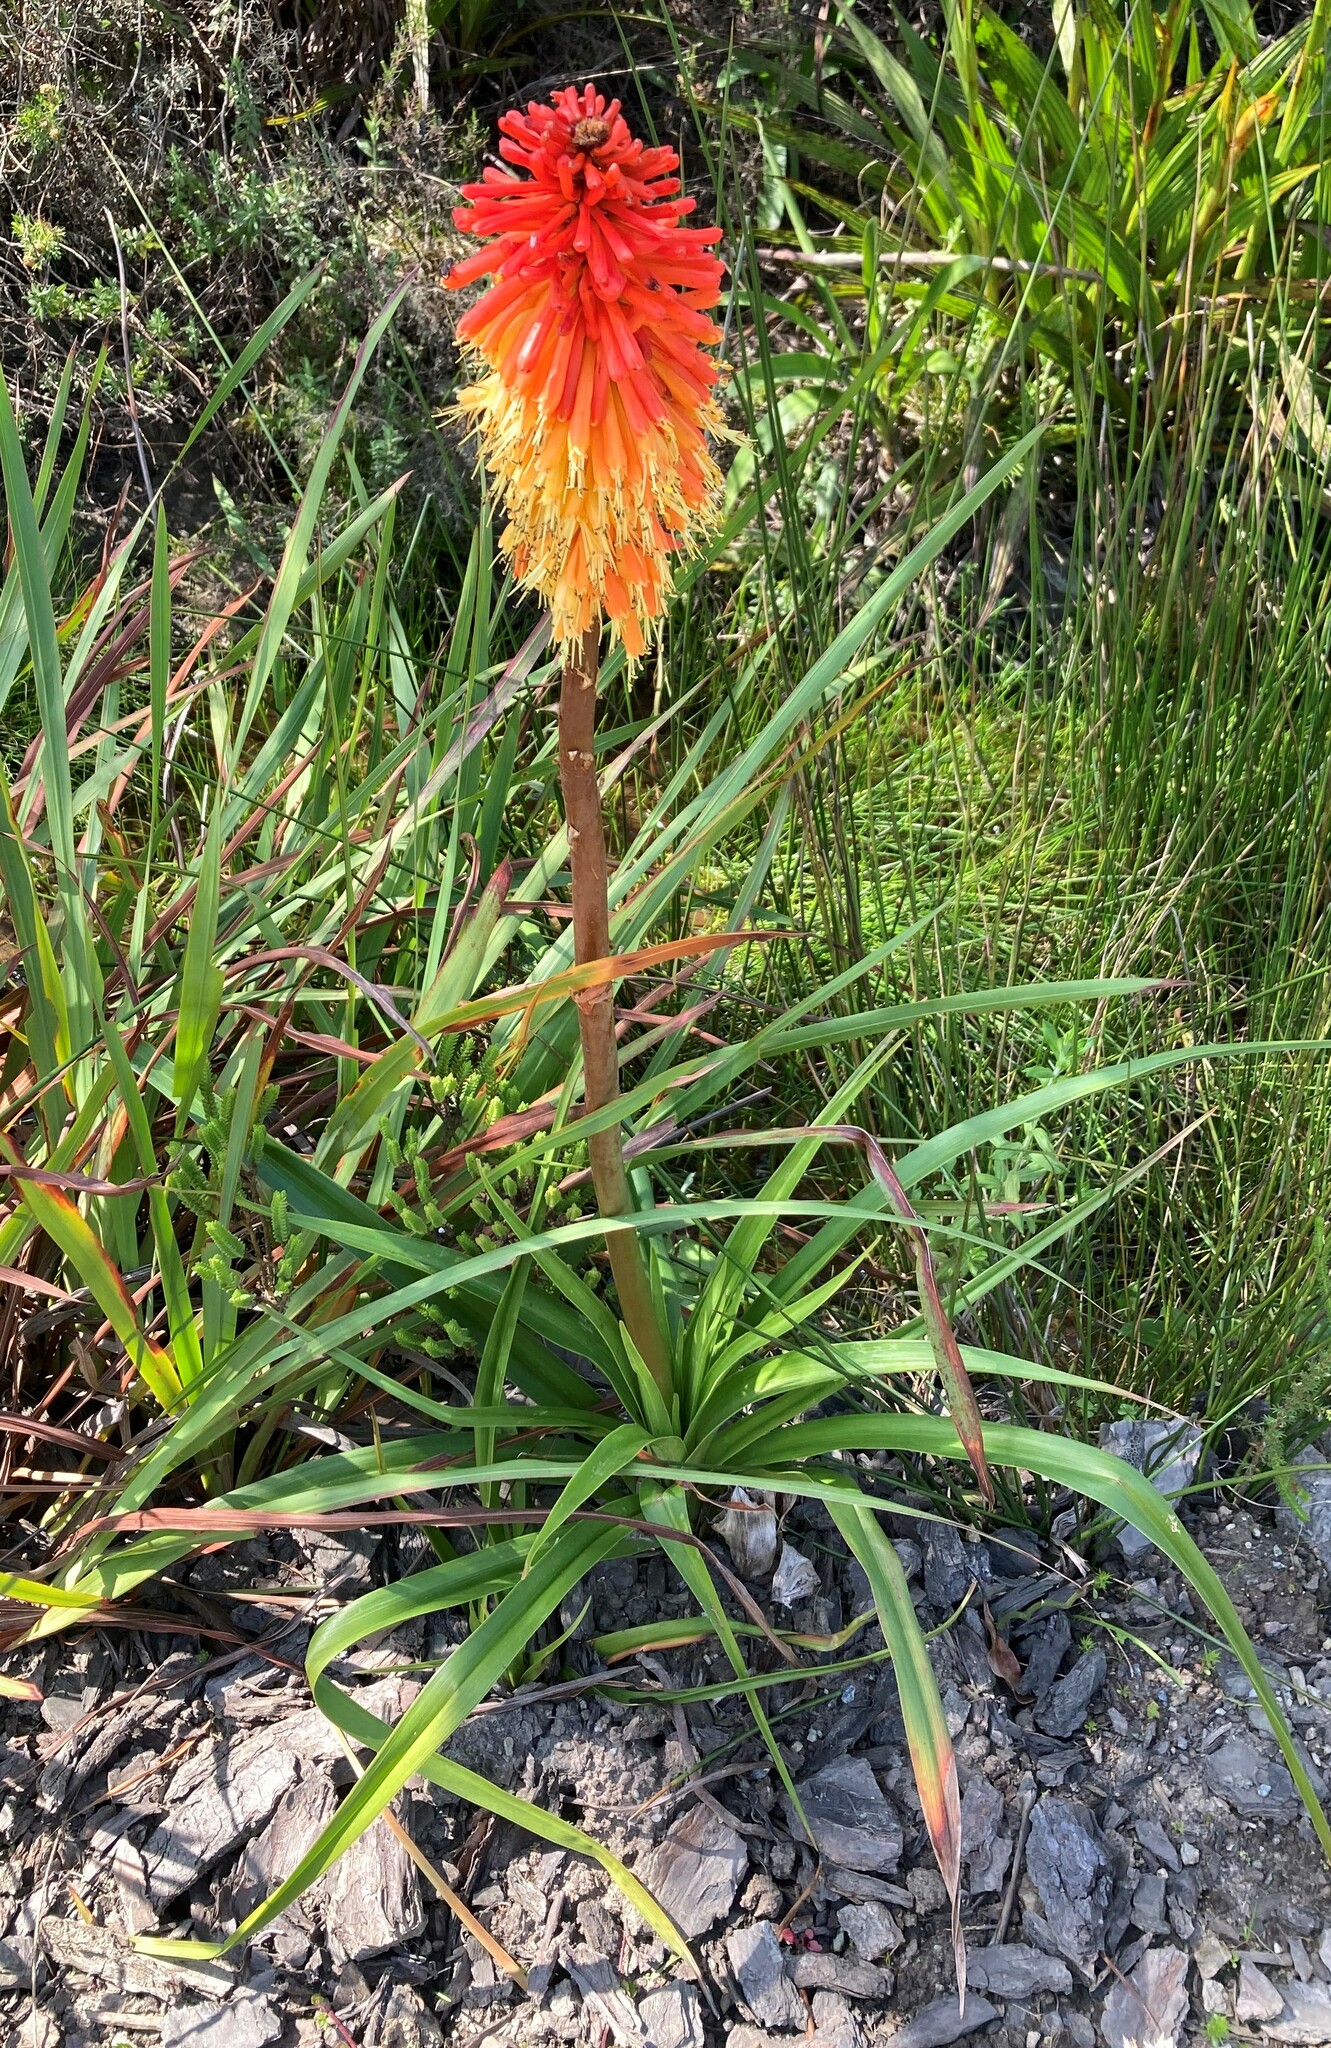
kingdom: Plantae
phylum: Tracheophyta
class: Liliopsida
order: Asparagales
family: Asphodelaceae
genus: Kniphofia
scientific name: Kniphofia uvaria
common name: Red-hot-poker
